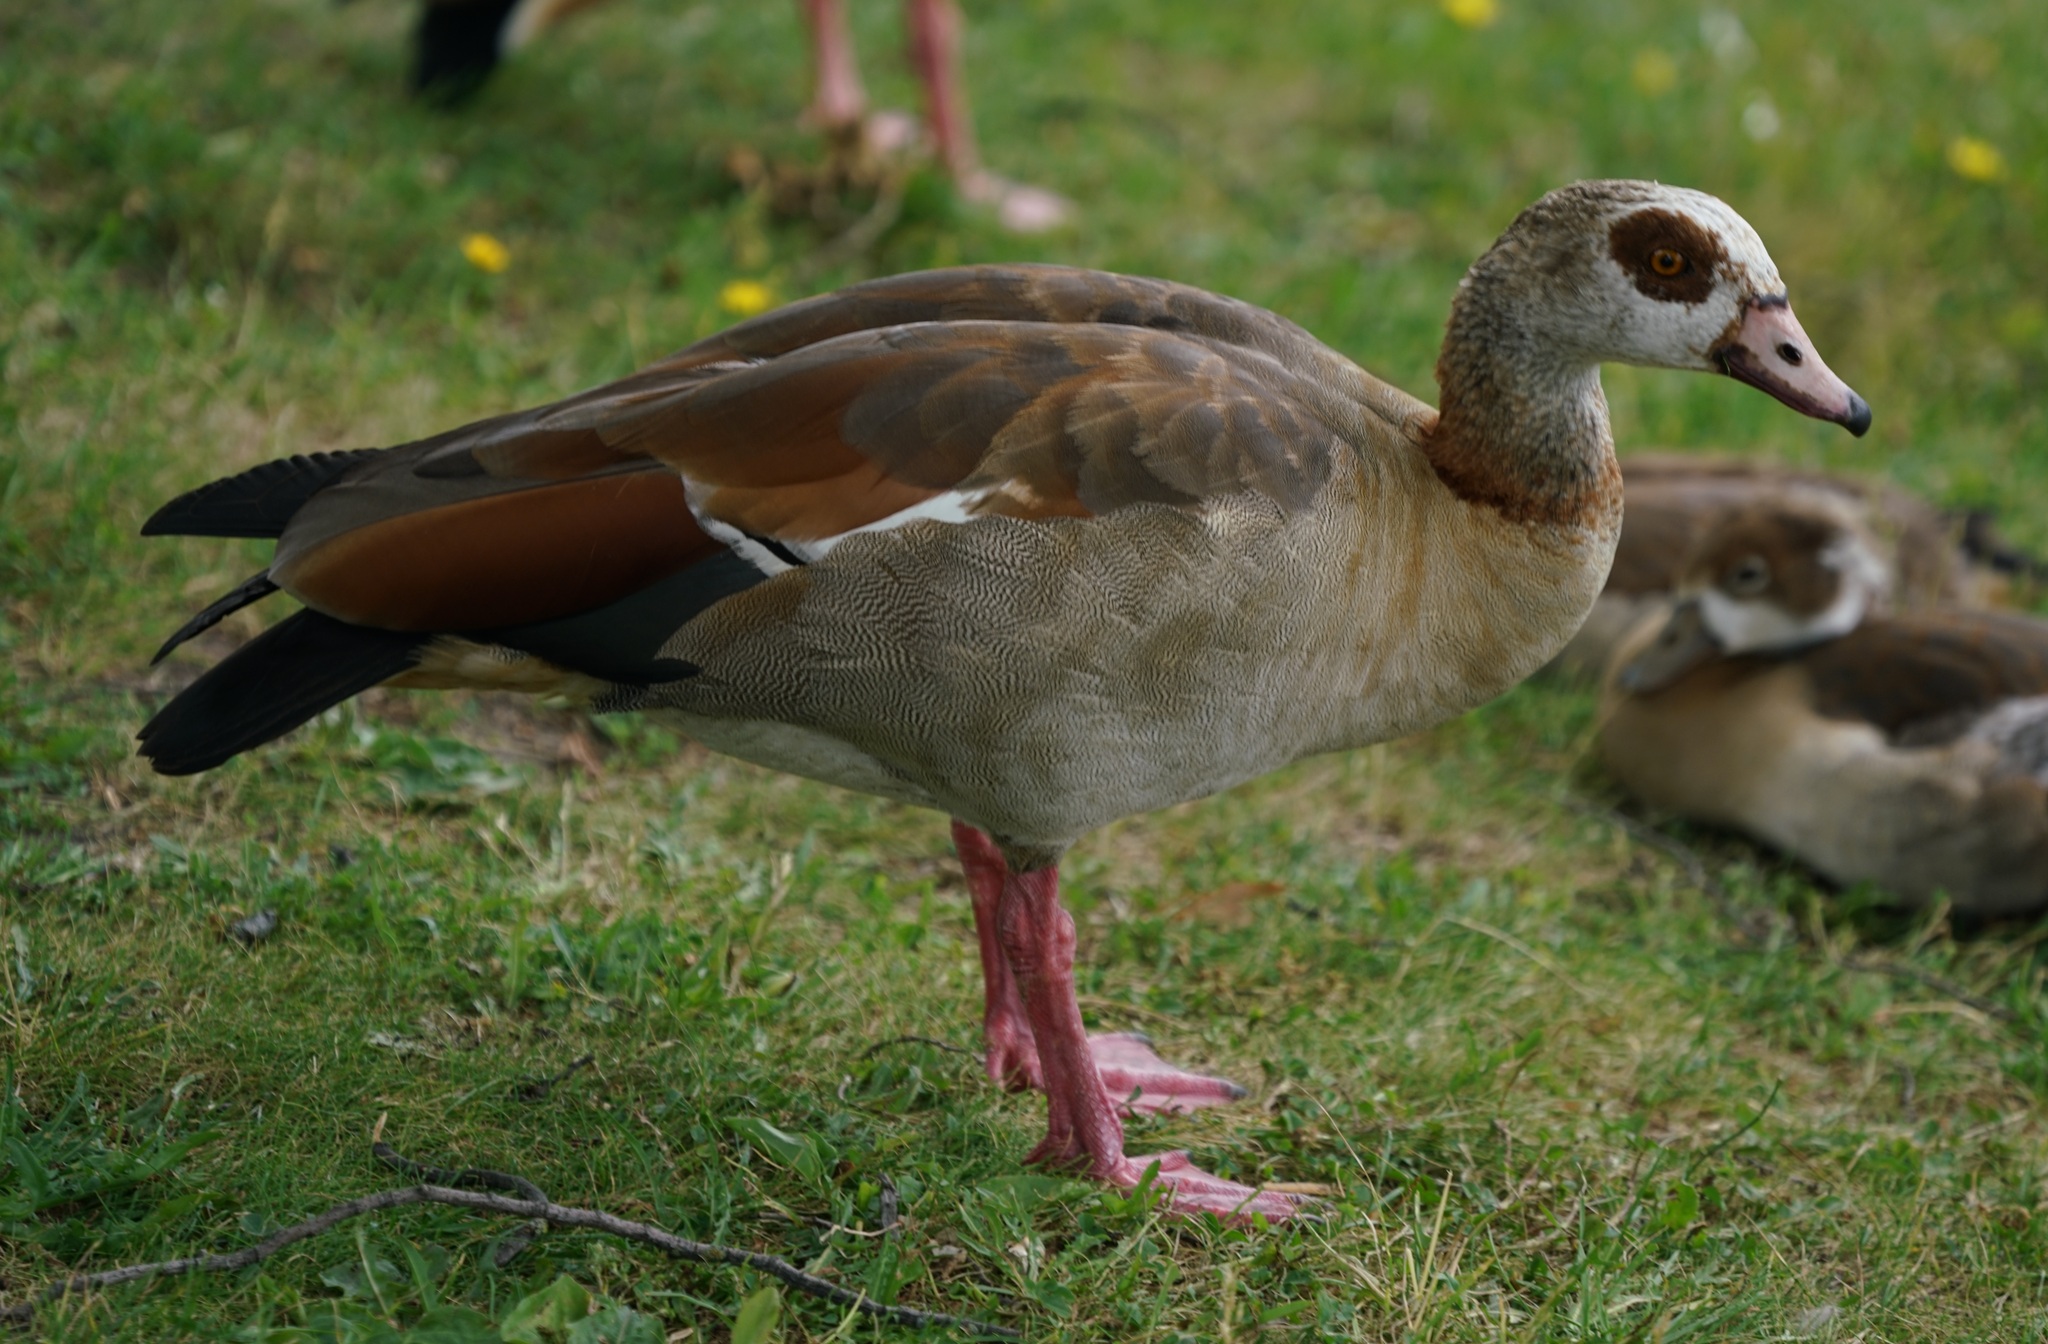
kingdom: Animalia
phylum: Chordata
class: Aves
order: Anseriformes
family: Anatidae
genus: Alopochen
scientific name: Alopochen aegyptiaca
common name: Egyptian goose
